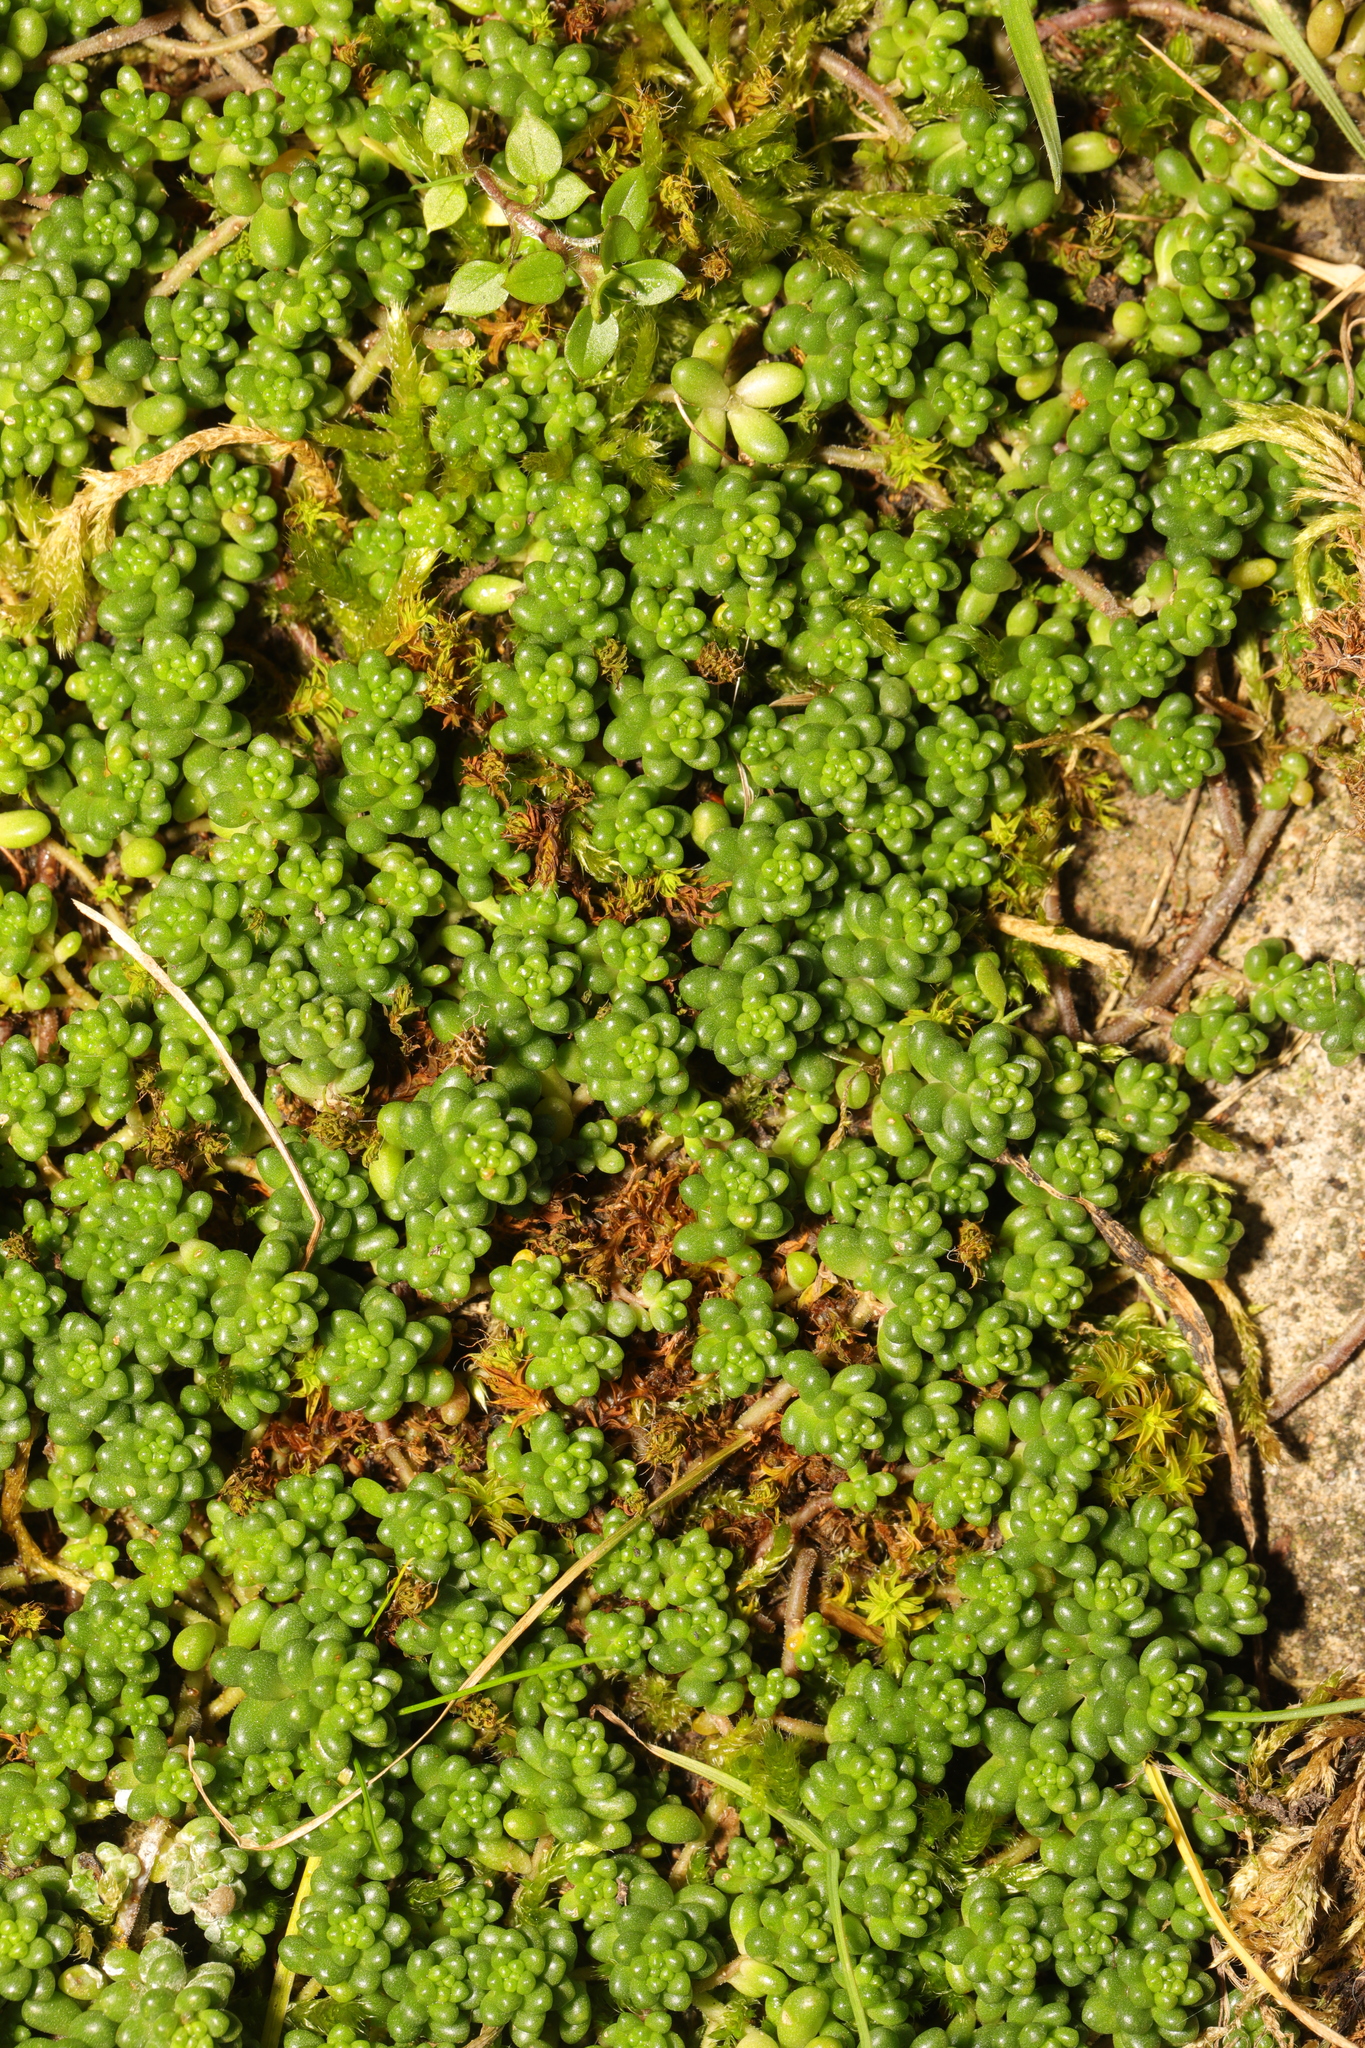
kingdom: Plantae
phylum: Tracheophyta
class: Magnoliopsida
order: Saxifragales
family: Crassulaceae
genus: Sedum
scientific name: Sedum album
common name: White stonecrop
